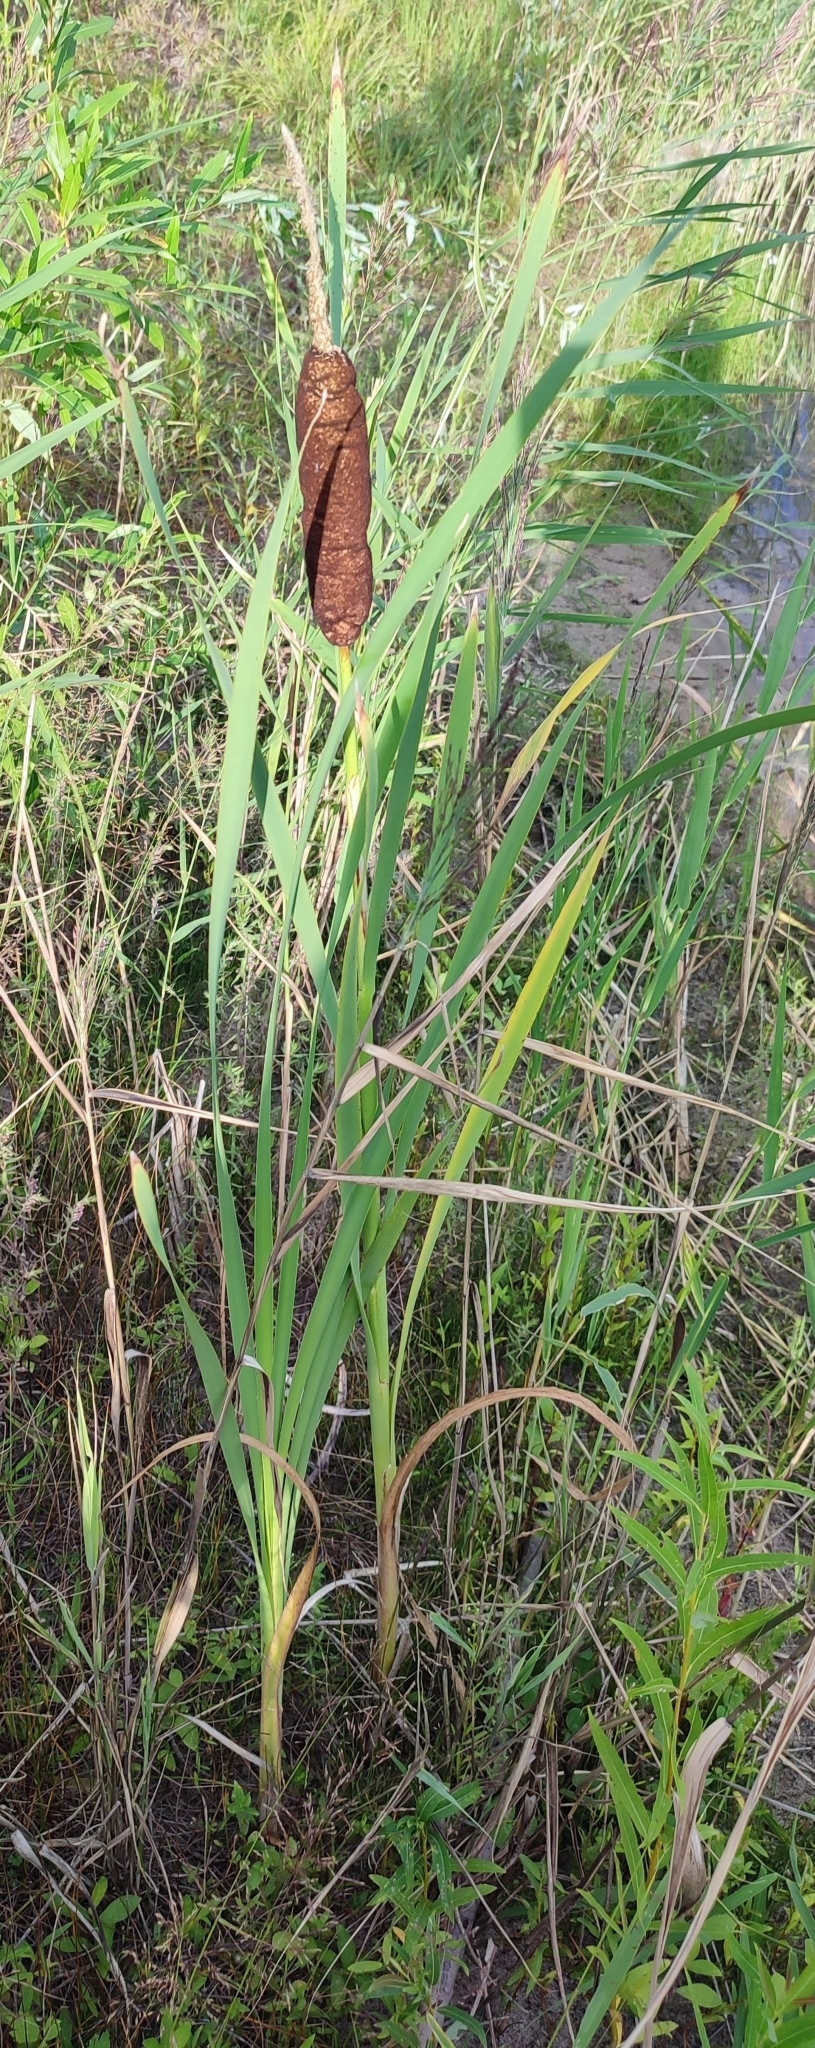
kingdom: Plantae
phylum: Tracheophyta
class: Liliopsida
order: Poales
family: Typhaceae
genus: Typha
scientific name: Typha latifolia
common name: Broadleaf cattail
